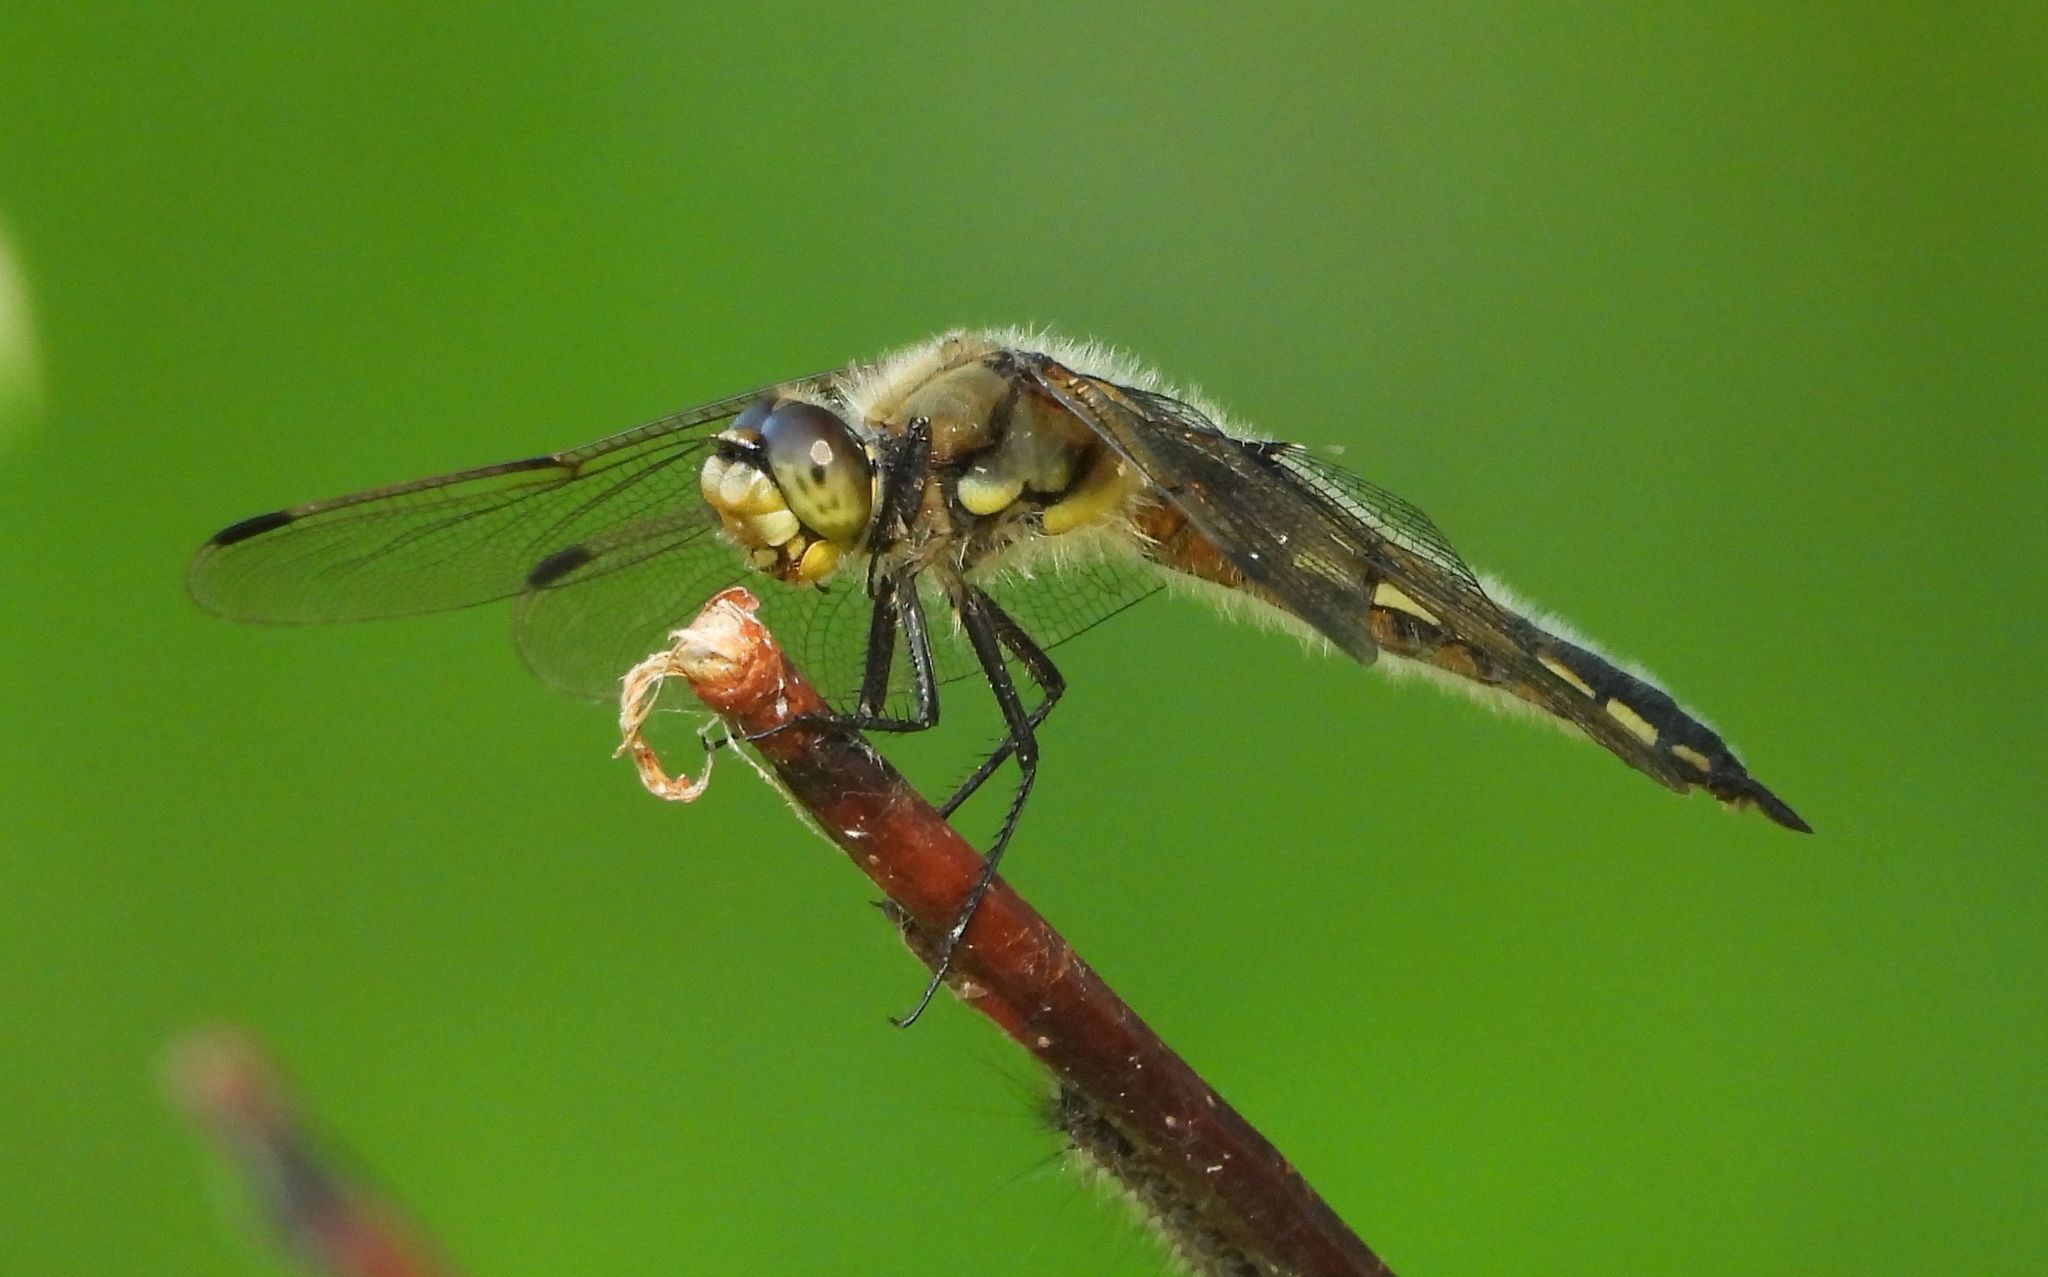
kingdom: Animalia
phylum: Arthropoda
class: Insecta
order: Odonata
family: Libellulidae
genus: Libellula
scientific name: Libellula quadrimaculata
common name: Four-spotted chaser
